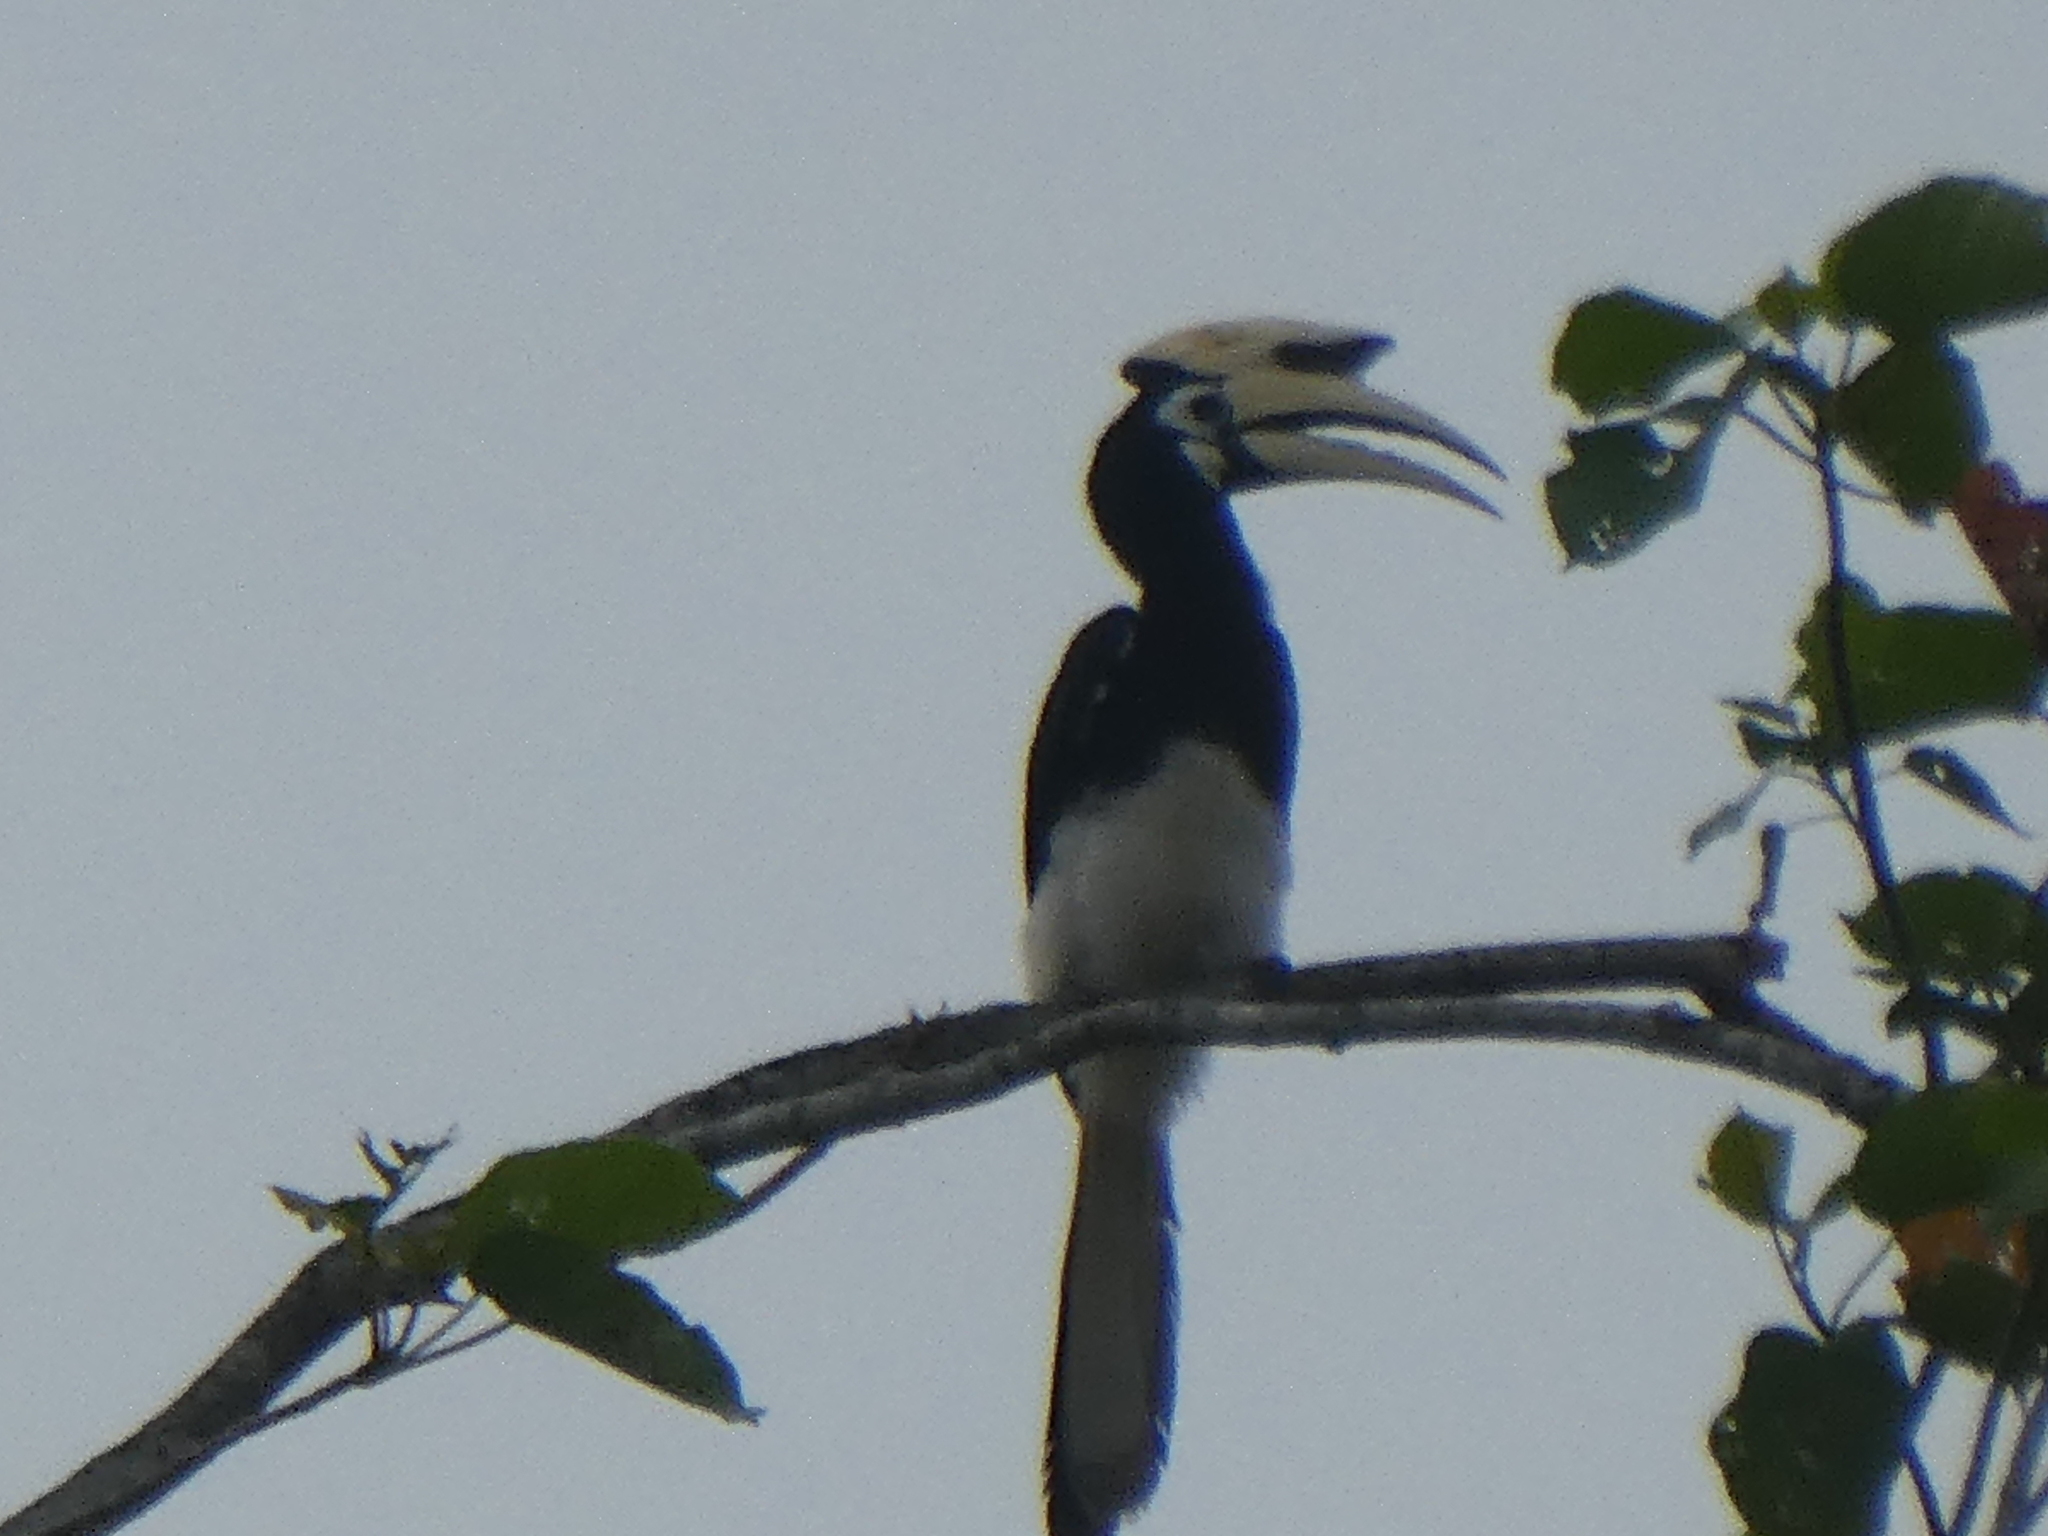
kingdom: Animalia
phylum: Chordata
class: Aves
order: Bucerotiformes
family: Bucerotidae
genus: Anthracoceros
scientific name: Anthracoceros albirostris
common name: Oriental pied-hornbill
